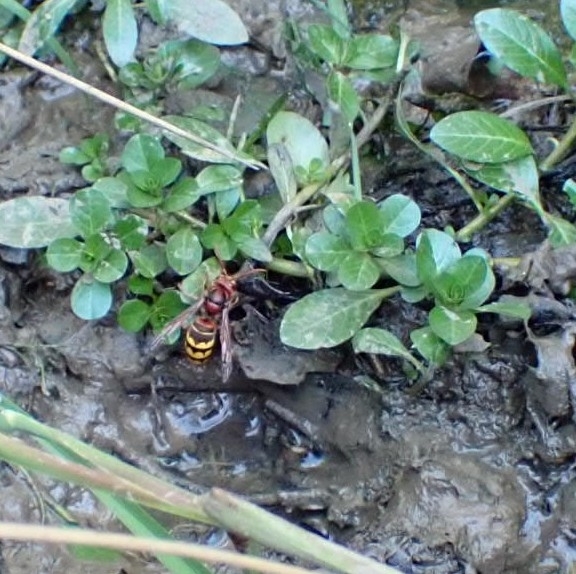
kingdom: Animalia
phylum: Arthropoda
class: Insecta
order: Hymenoptera
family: Vespidae
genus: Vespa
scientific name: Vespa crabro
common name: Hornet
